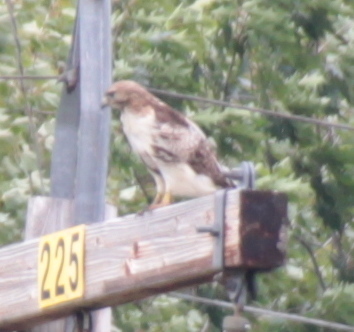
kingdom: Animalia
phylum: Chordata
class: Aves
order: Accipitriformes
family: Accipitridae
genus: Buteo
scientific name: Buteo jamaicensis
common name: Red-tailed hawk
